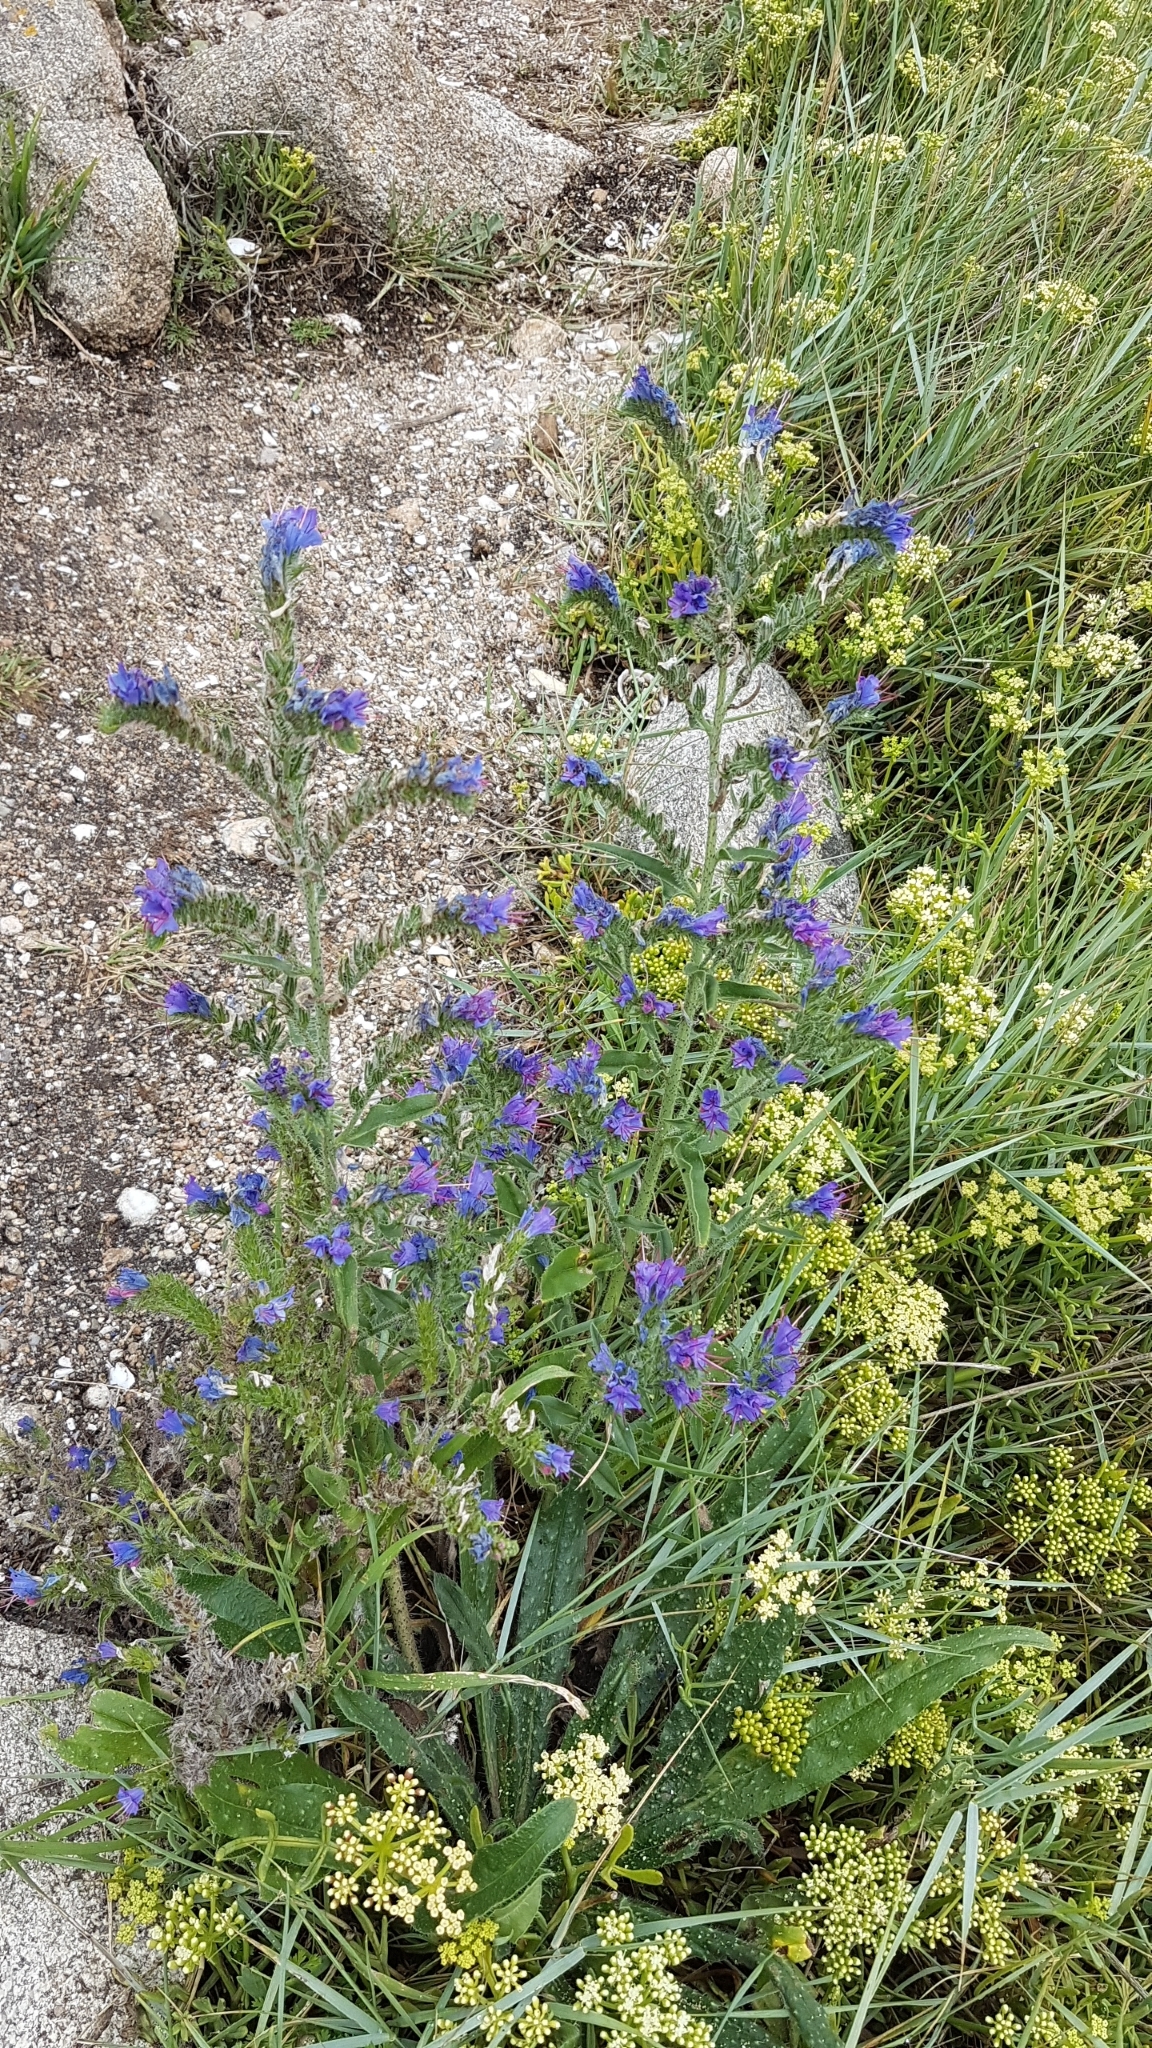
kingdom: Plantae
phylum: Tracheophyta
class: Magnoliopsida
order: Boraginales
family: Boraginaceae
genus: Echium
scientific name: Echium vulgare
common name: Common viper's bugloss
